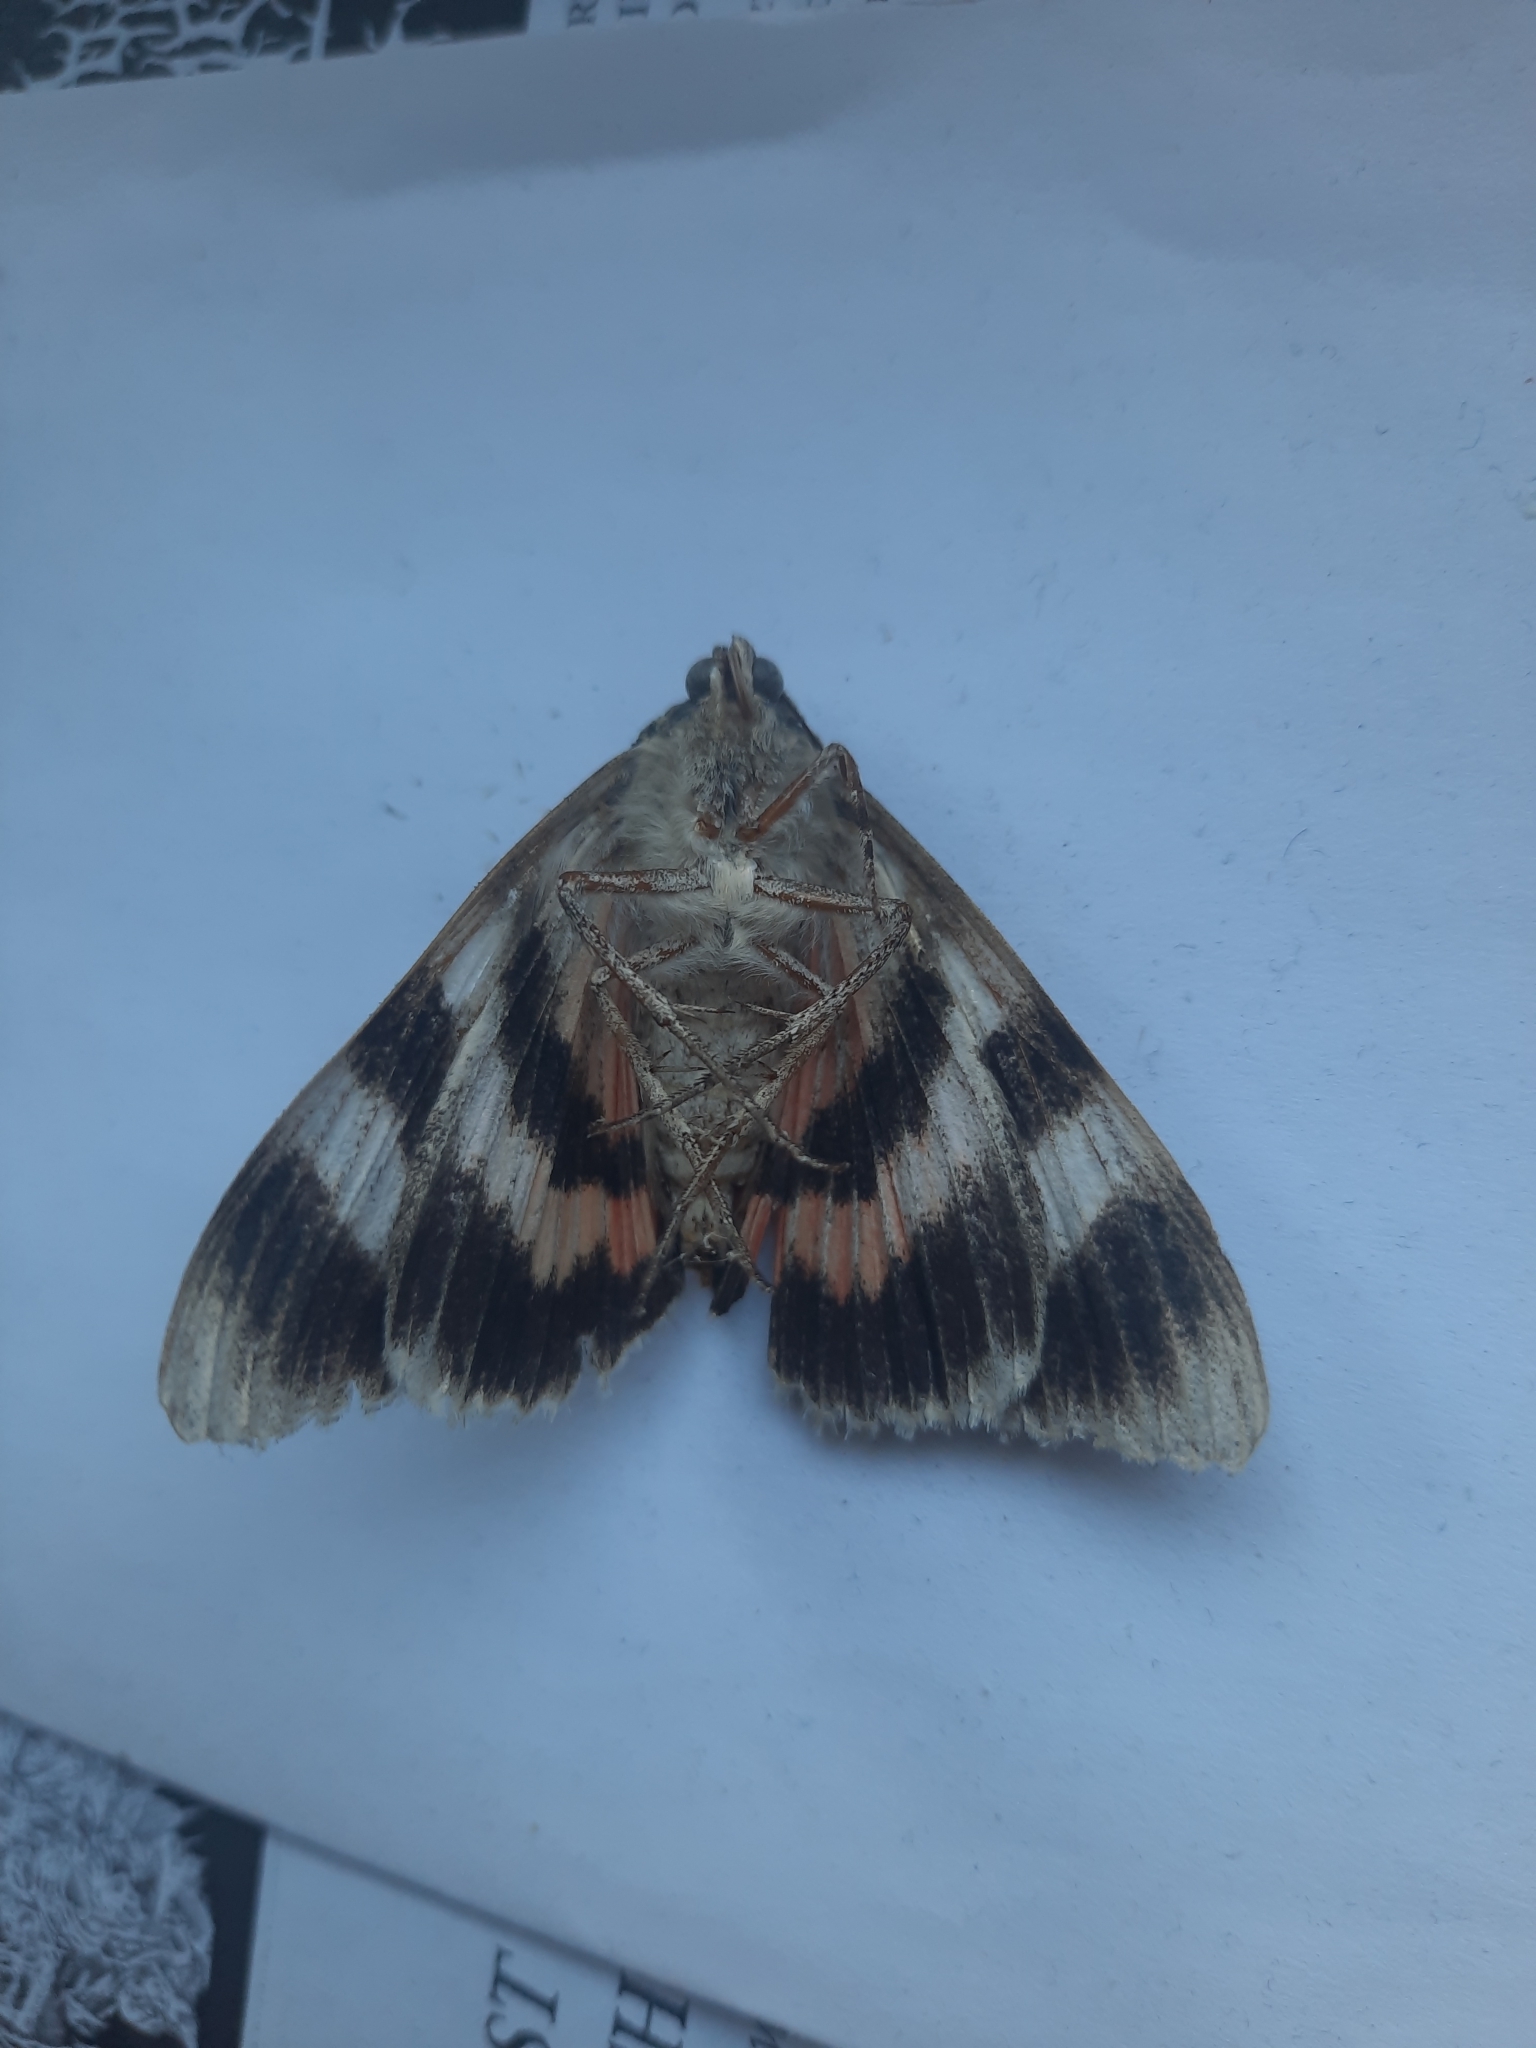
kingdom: Animalia
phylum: Arthropoda
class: Insecta
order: Lepidoptera
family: Erebidae
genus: Catocala
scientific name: Catocala elocata
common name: French red underwing
